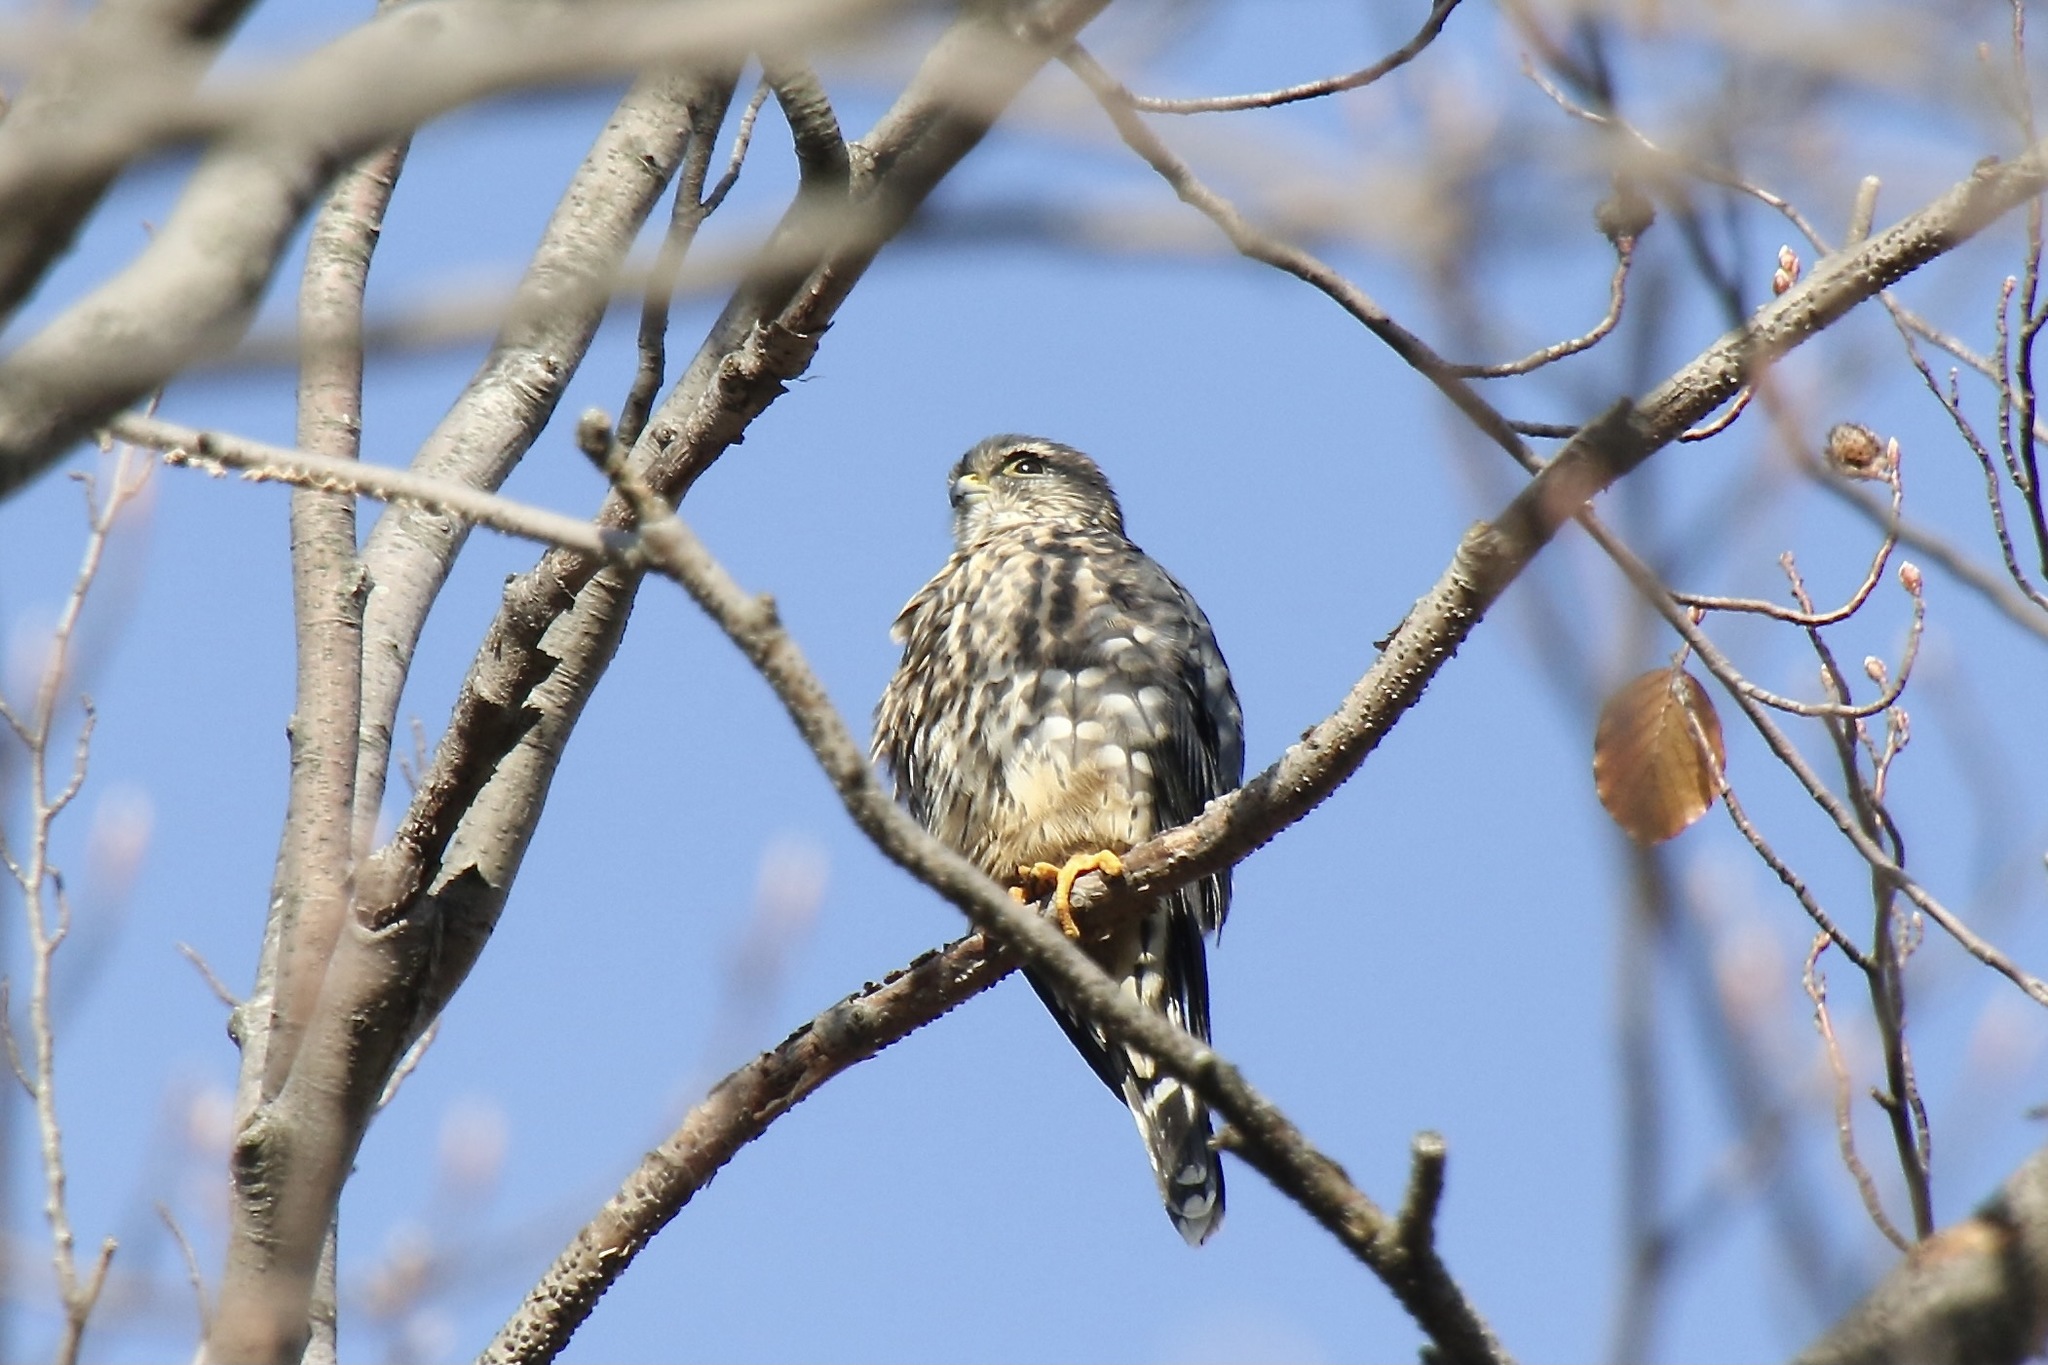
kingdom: Animalia
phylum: Chordata
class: Aves
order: Falconiformes
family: Falconidae
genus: Falco
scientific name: Falco columbarius
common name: Merlin
